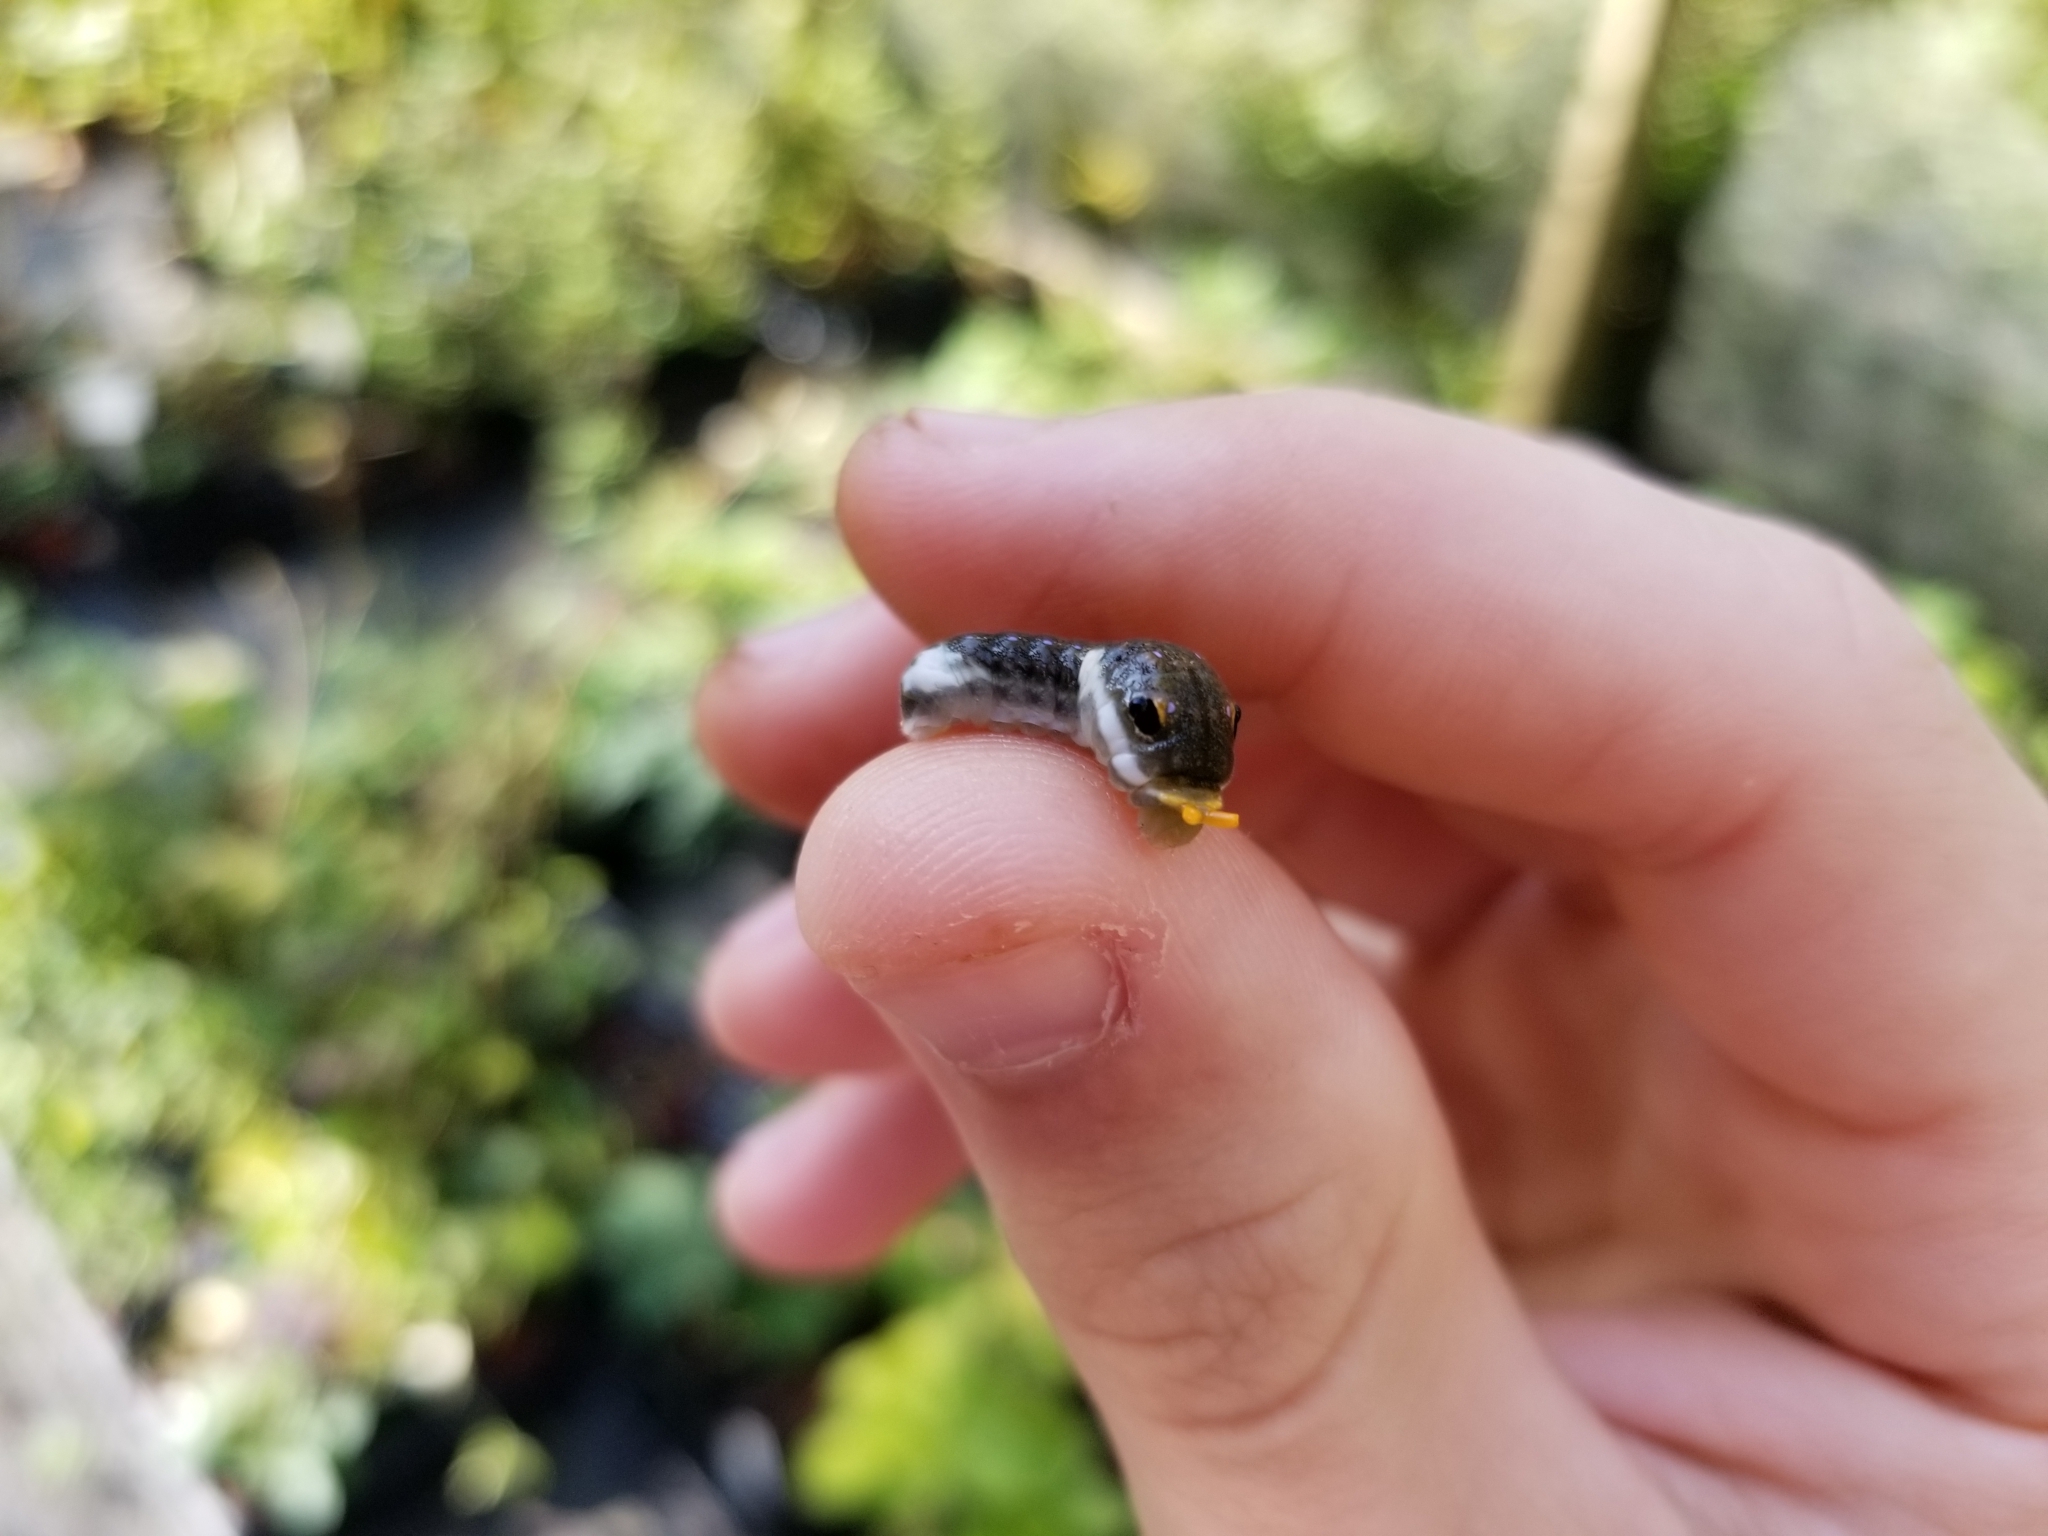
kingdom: Animalia
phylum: Arthropoda
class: Insecta
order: Lepidoptera
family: Papilionidae
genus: Papilio
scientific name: Papilio troilus
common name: Spicebush swallowtail
